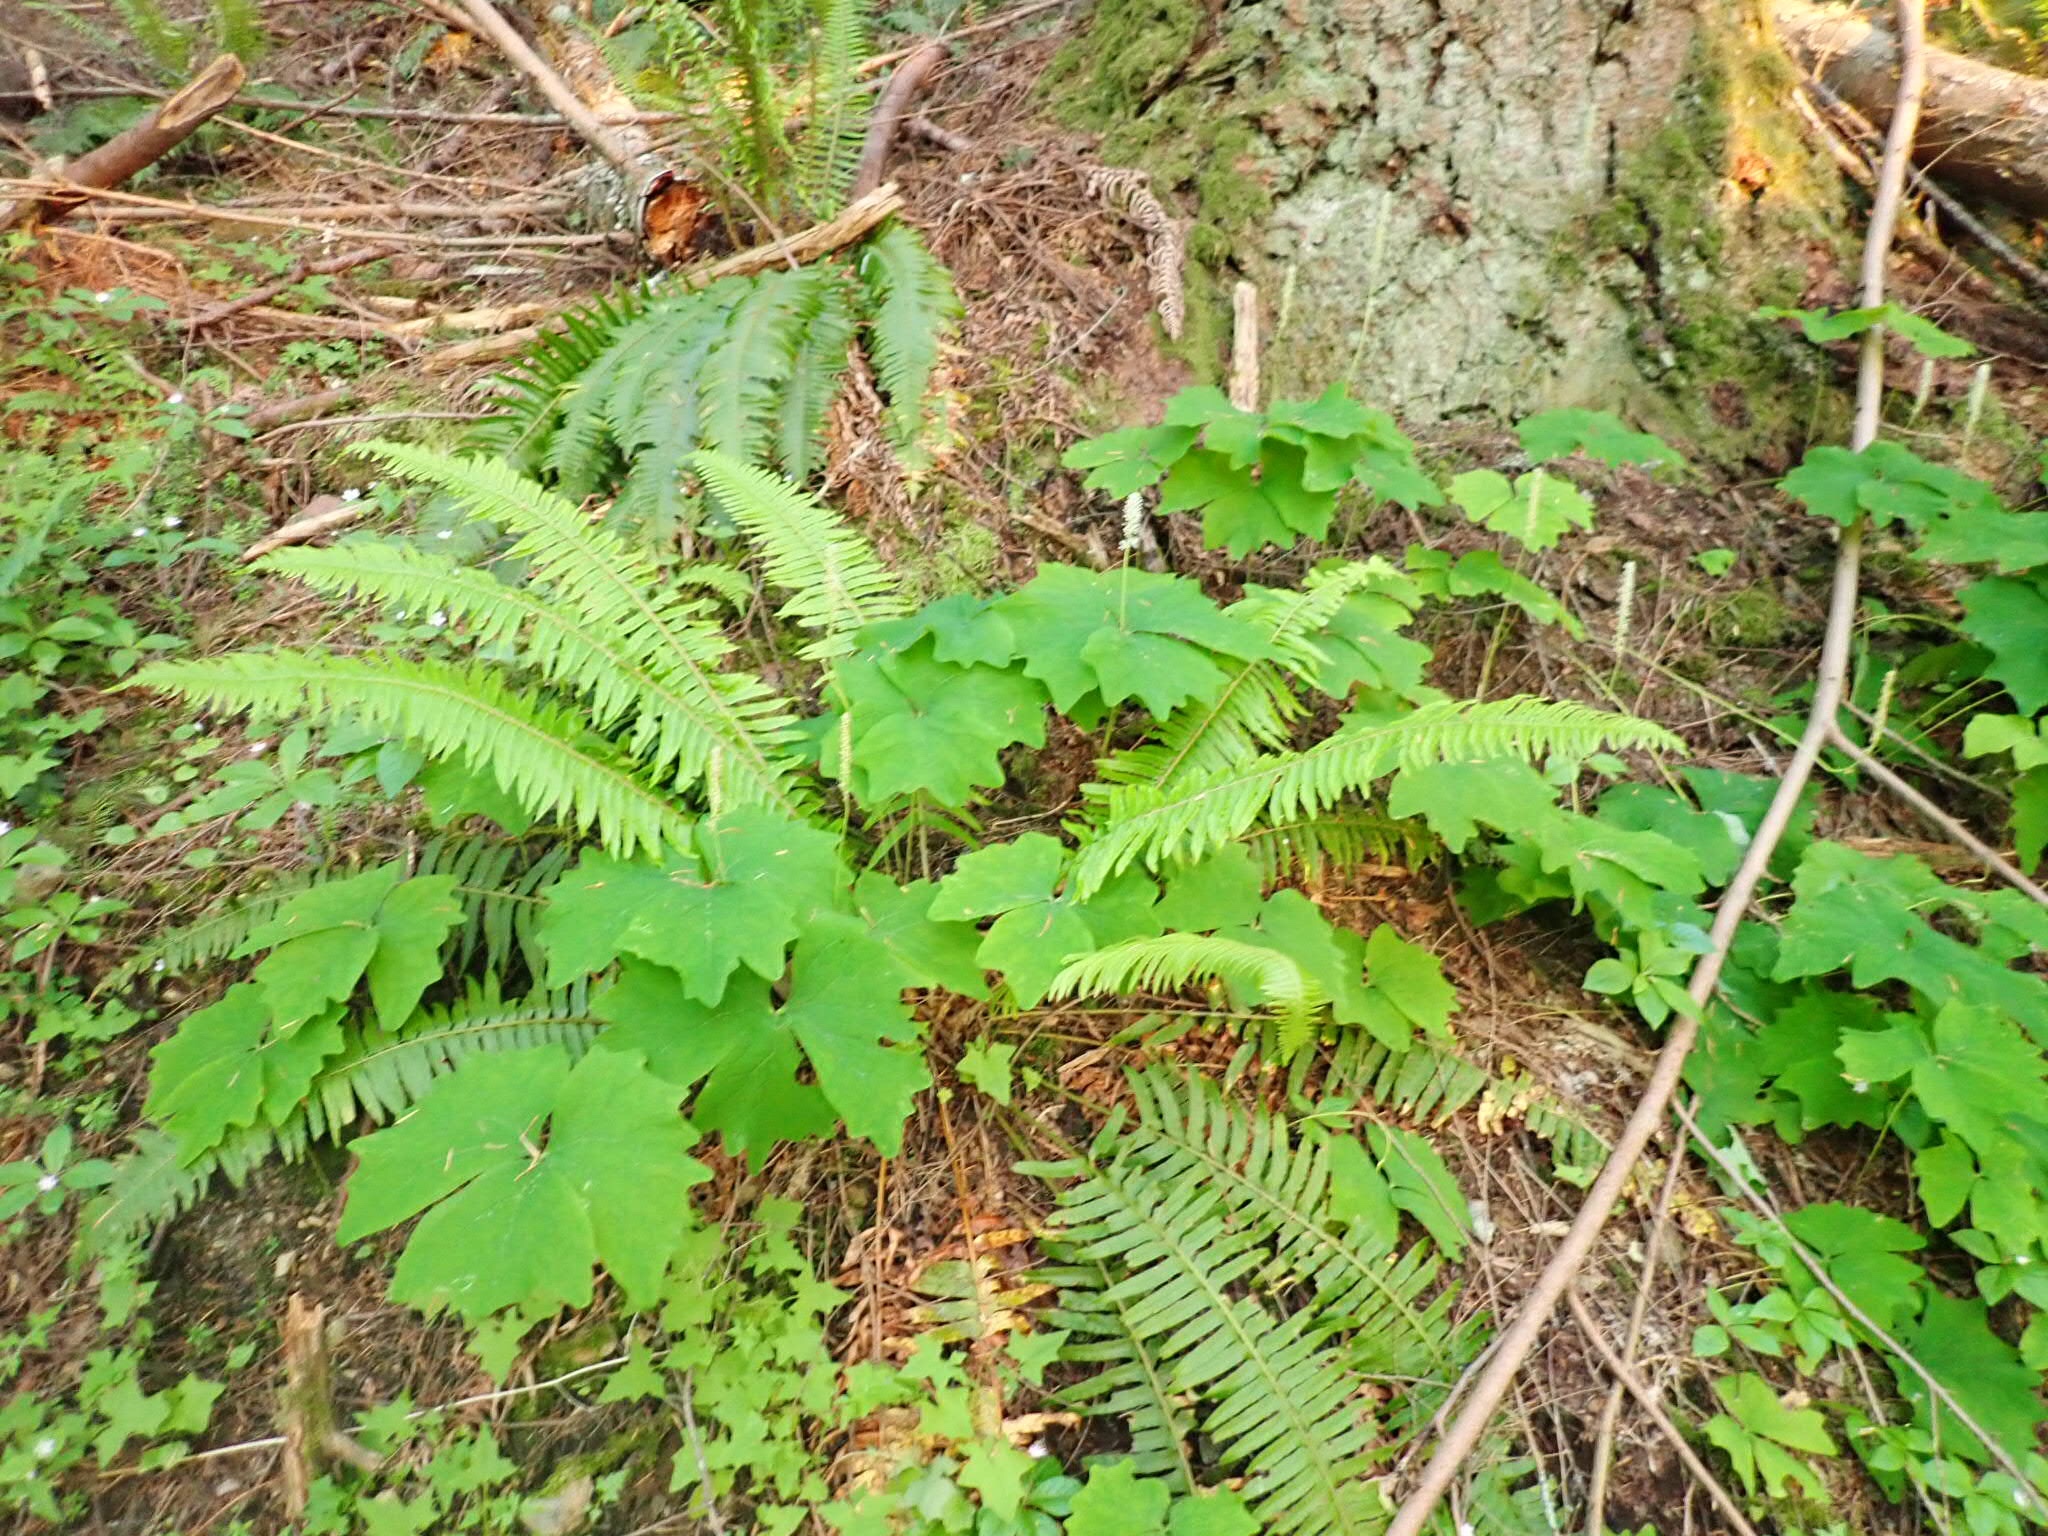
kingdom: Plantae
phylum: Tracheophyta
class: Magnoliopsida
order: Ranunculales
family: Berberidaceae
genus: Achlys
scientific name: Achlys triphylla
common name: Vanilla-leaf
